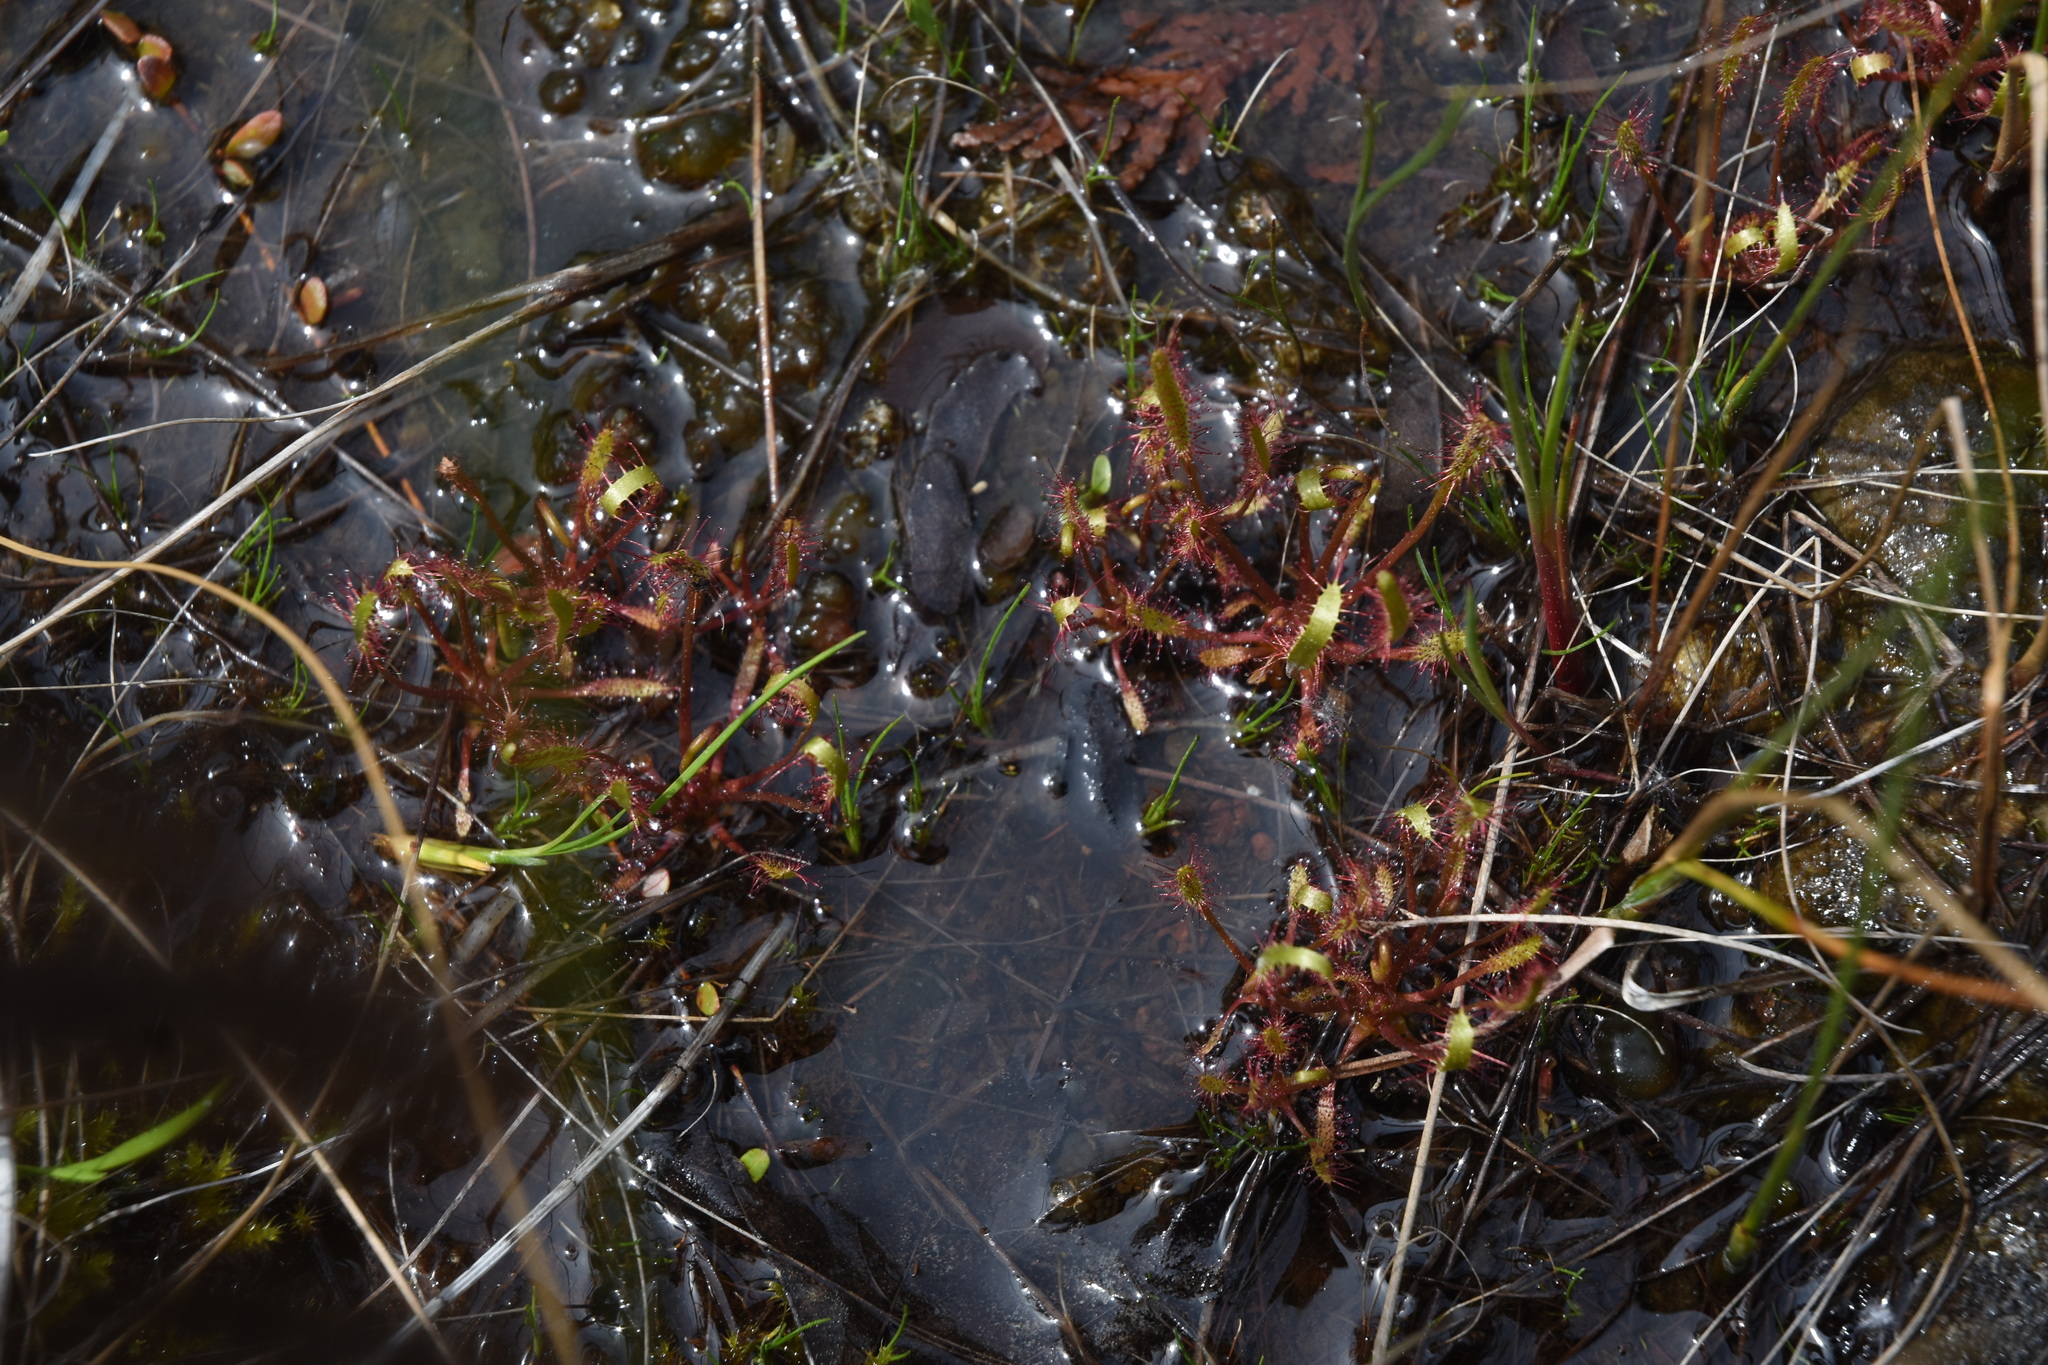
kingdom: Plantae
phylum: Tracheophyta
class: Magnoliopsida
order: Caryophyllales
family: Droseraceae
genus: Drosera
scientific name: Drosera linearis
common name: Linear-leaved sundew
